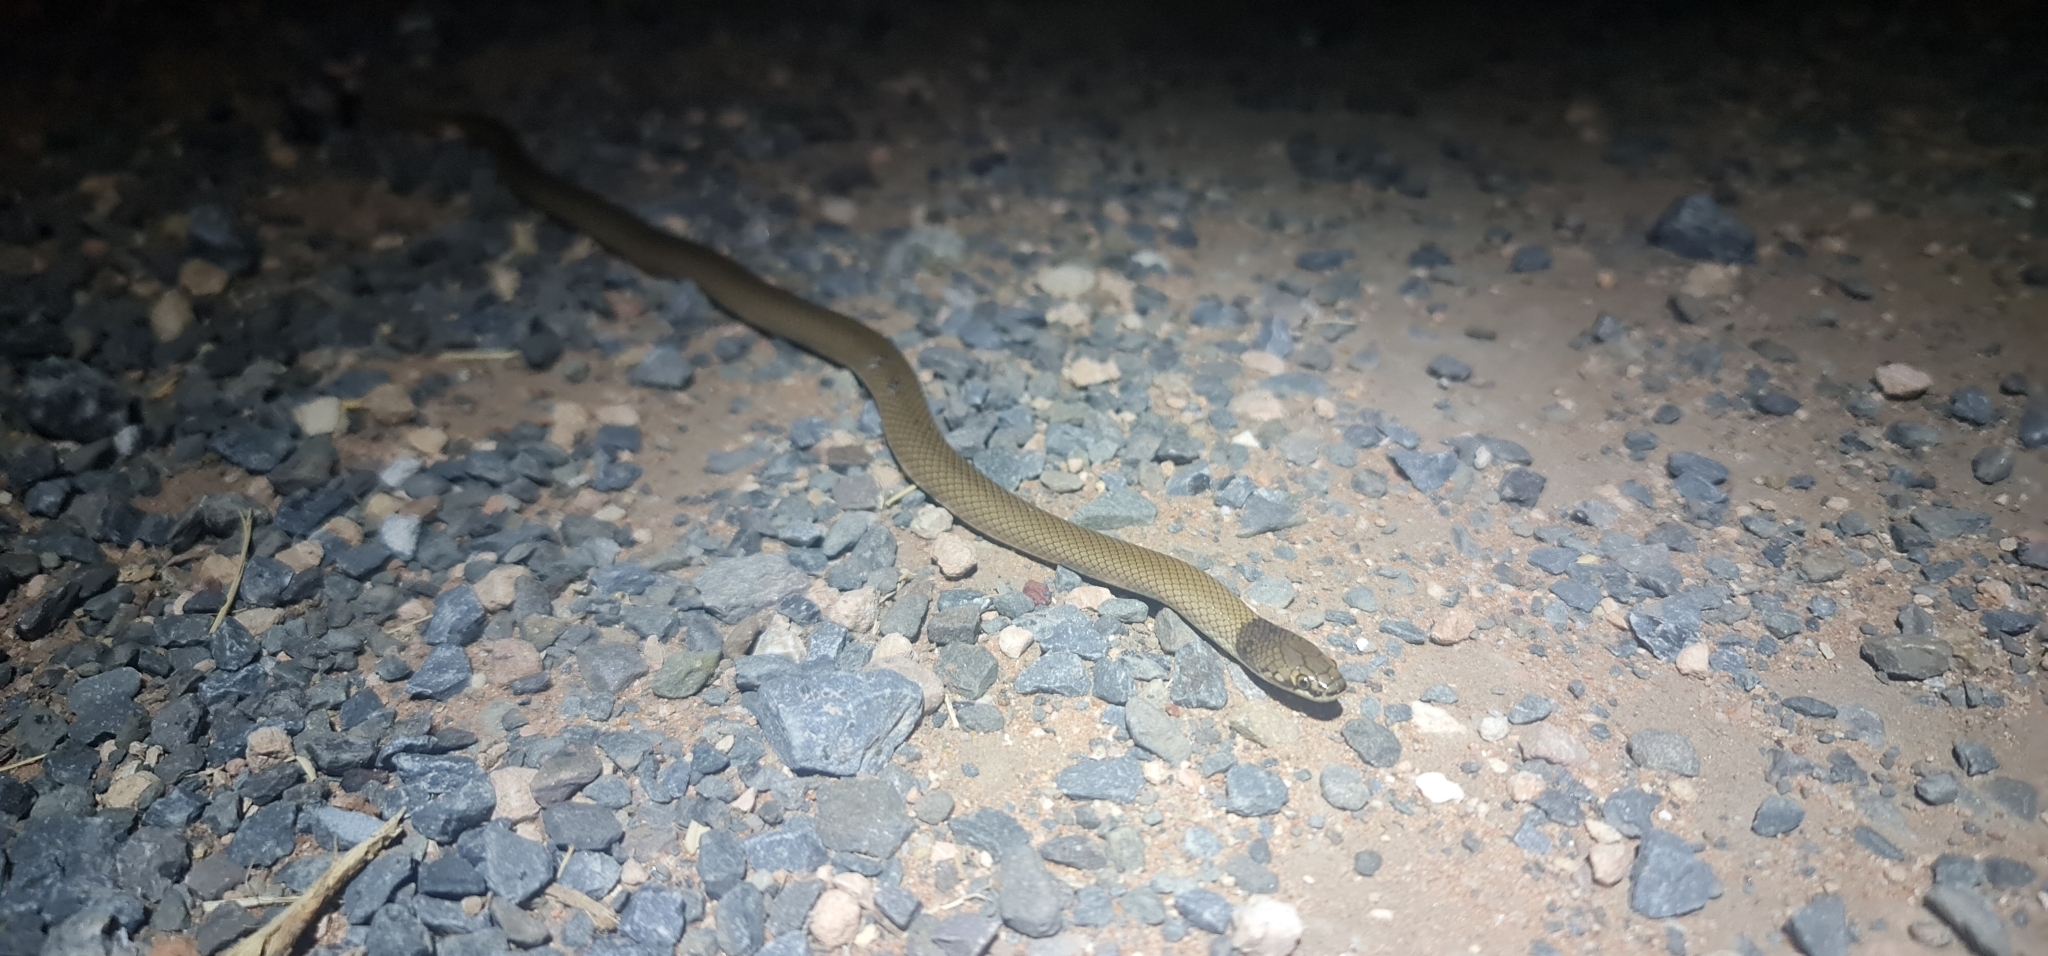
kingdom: Animalia
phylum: Chordata
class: Squamata
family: Elapidae
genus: Suta
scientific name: Suta suta
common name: Curl snake
